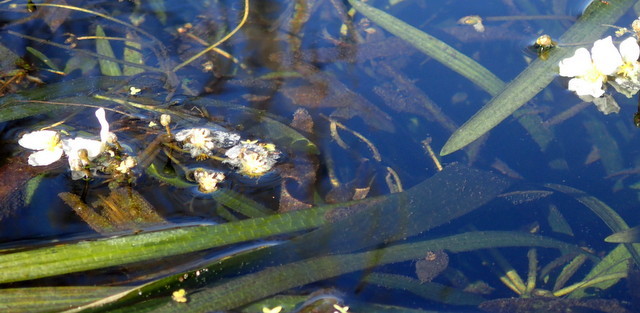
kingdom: Plantae
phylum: Tracheophyta
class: Liliopsida
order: Alismatales
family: Alismataceae
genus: Sagittaria
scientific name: Sagittaria kurziana
